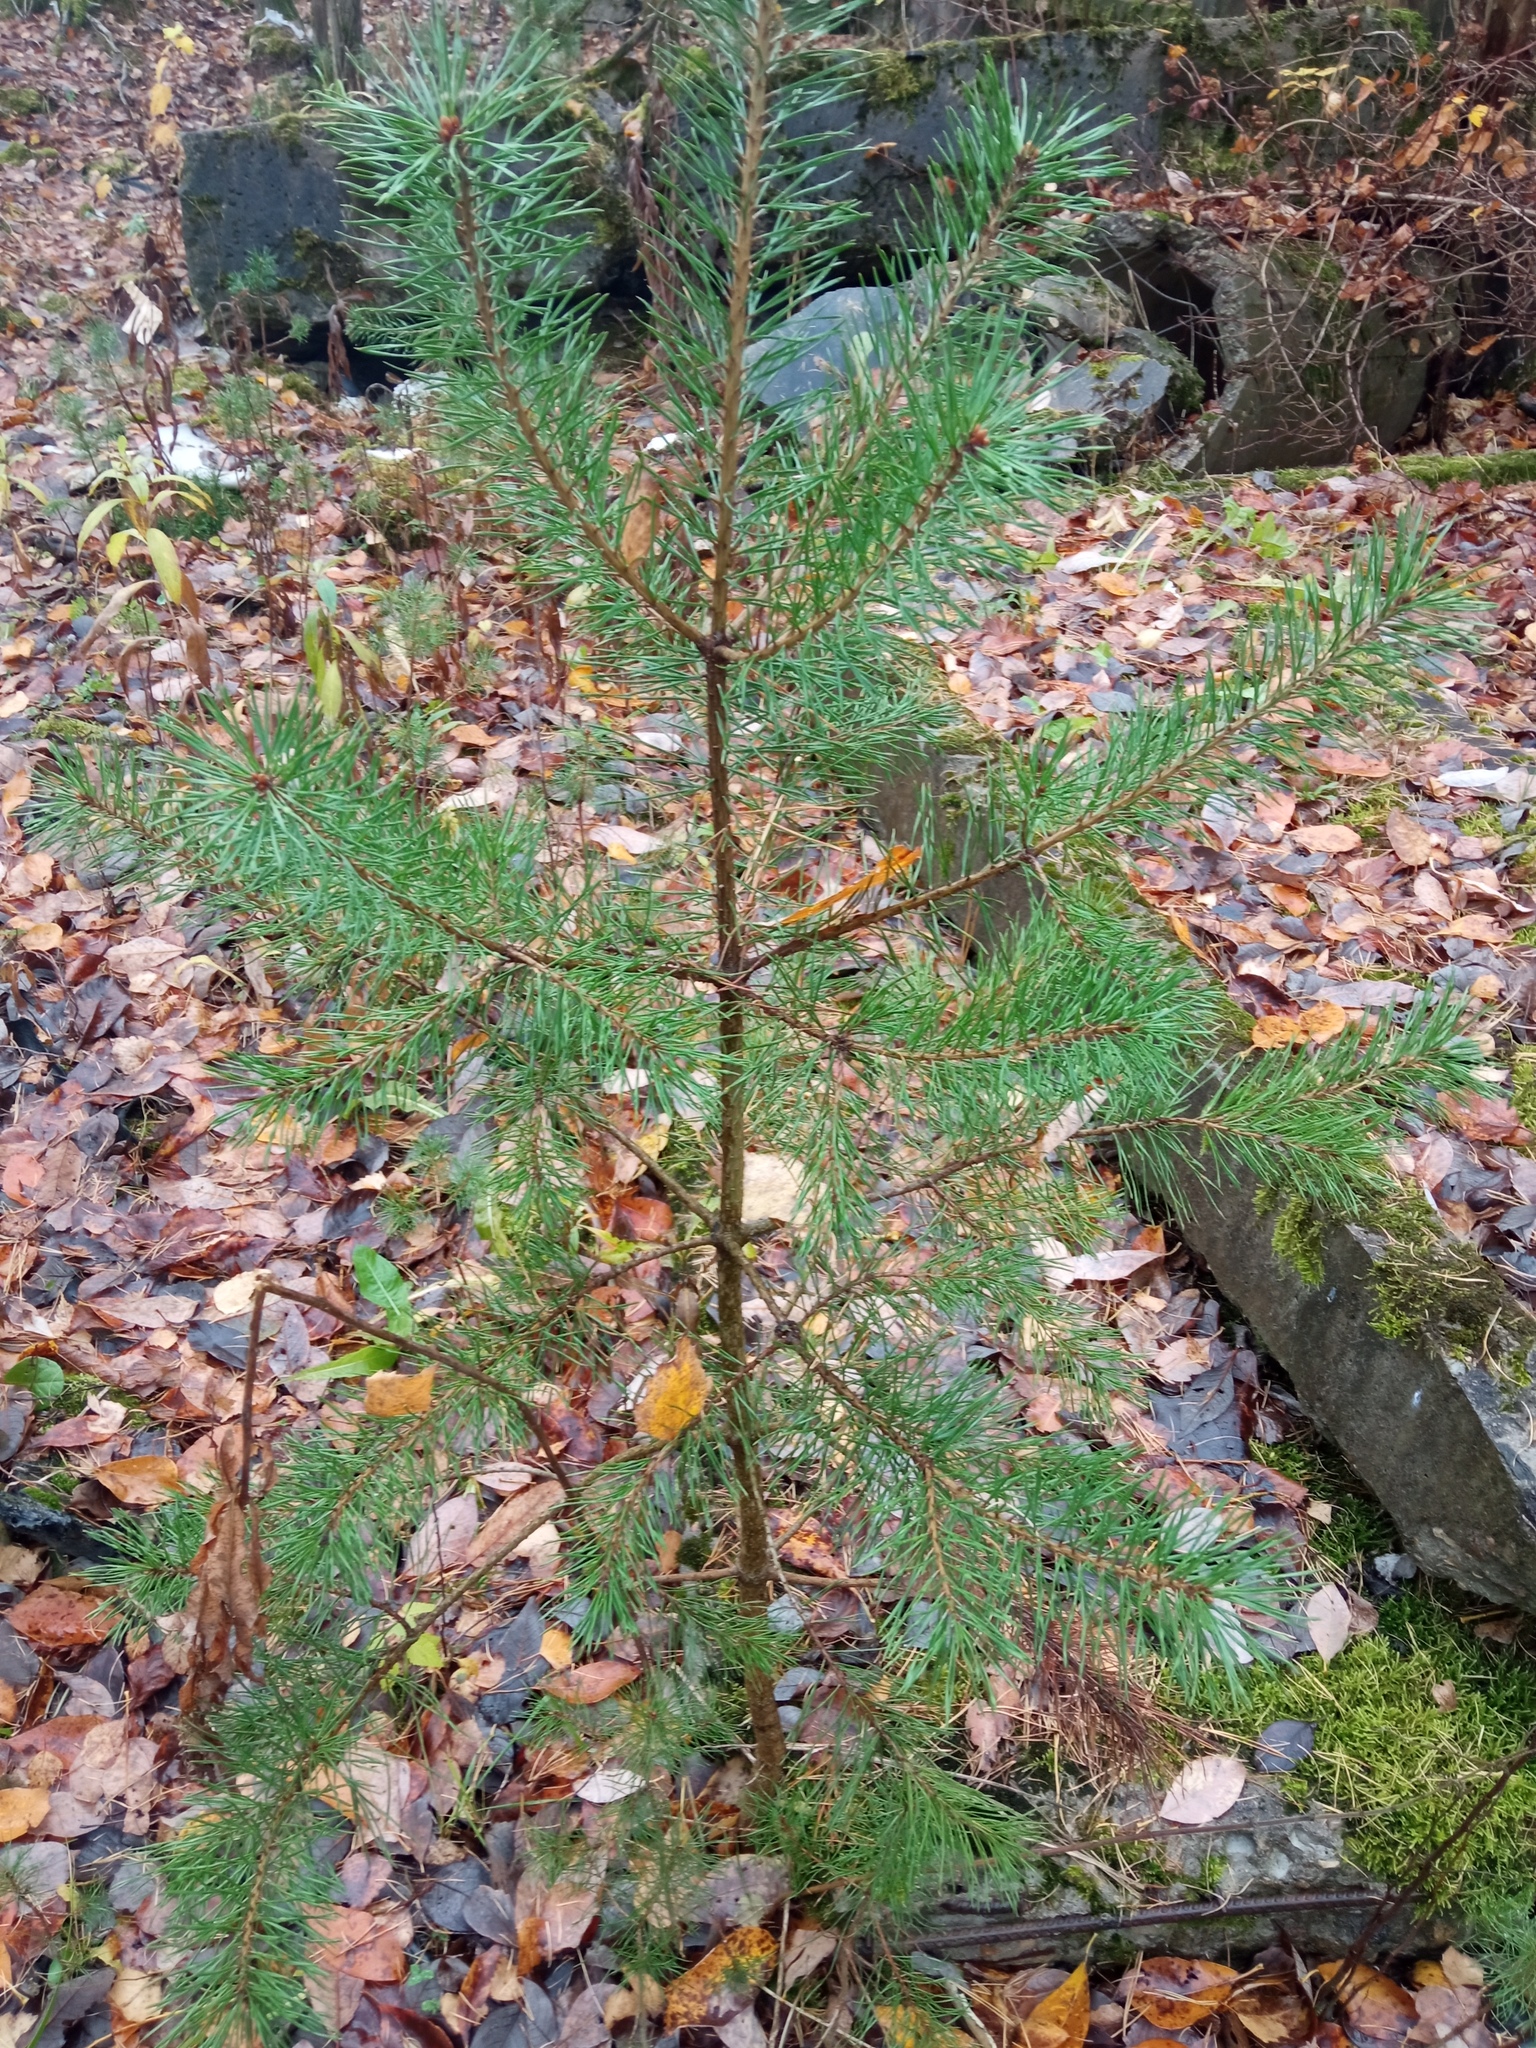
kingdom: Plantae
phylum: Tracheophyta
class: Pinopsida
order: Pinales
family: Pinaceae
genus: Pinus
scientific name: Pinus sylvestris
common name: Scots pine
